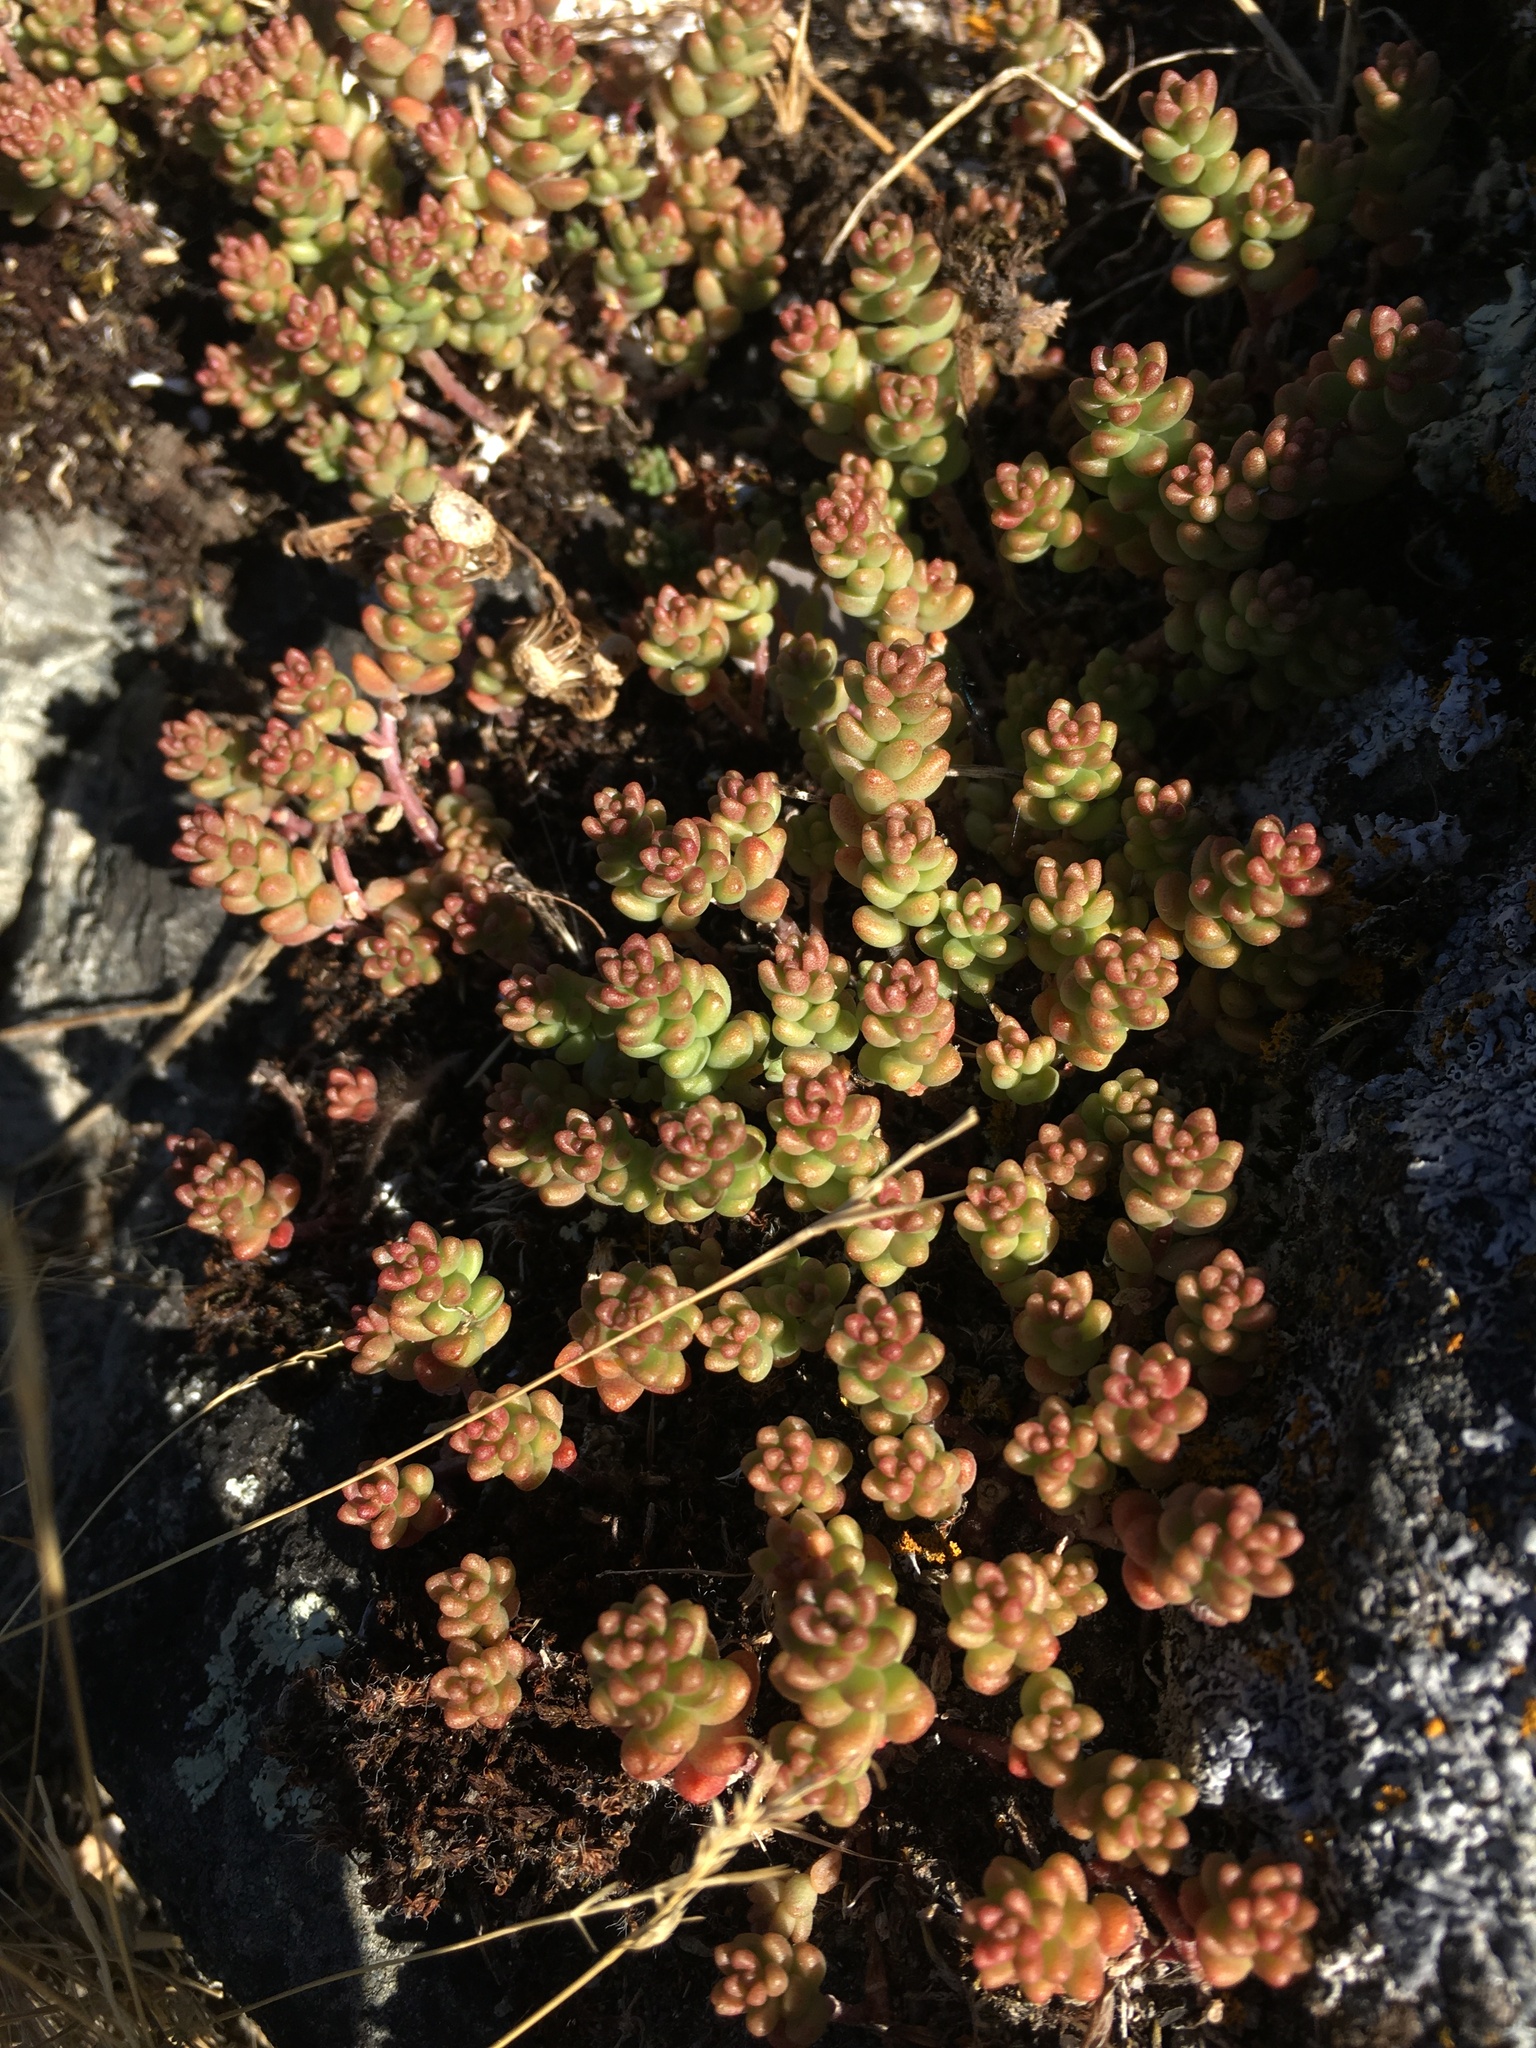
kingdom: Plantae
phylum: Tracheophyta
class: Magnoliopsida
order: Saxifragales
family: Crassulaceae
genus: Sedum
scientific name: Sedum album
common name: White stonecrop
